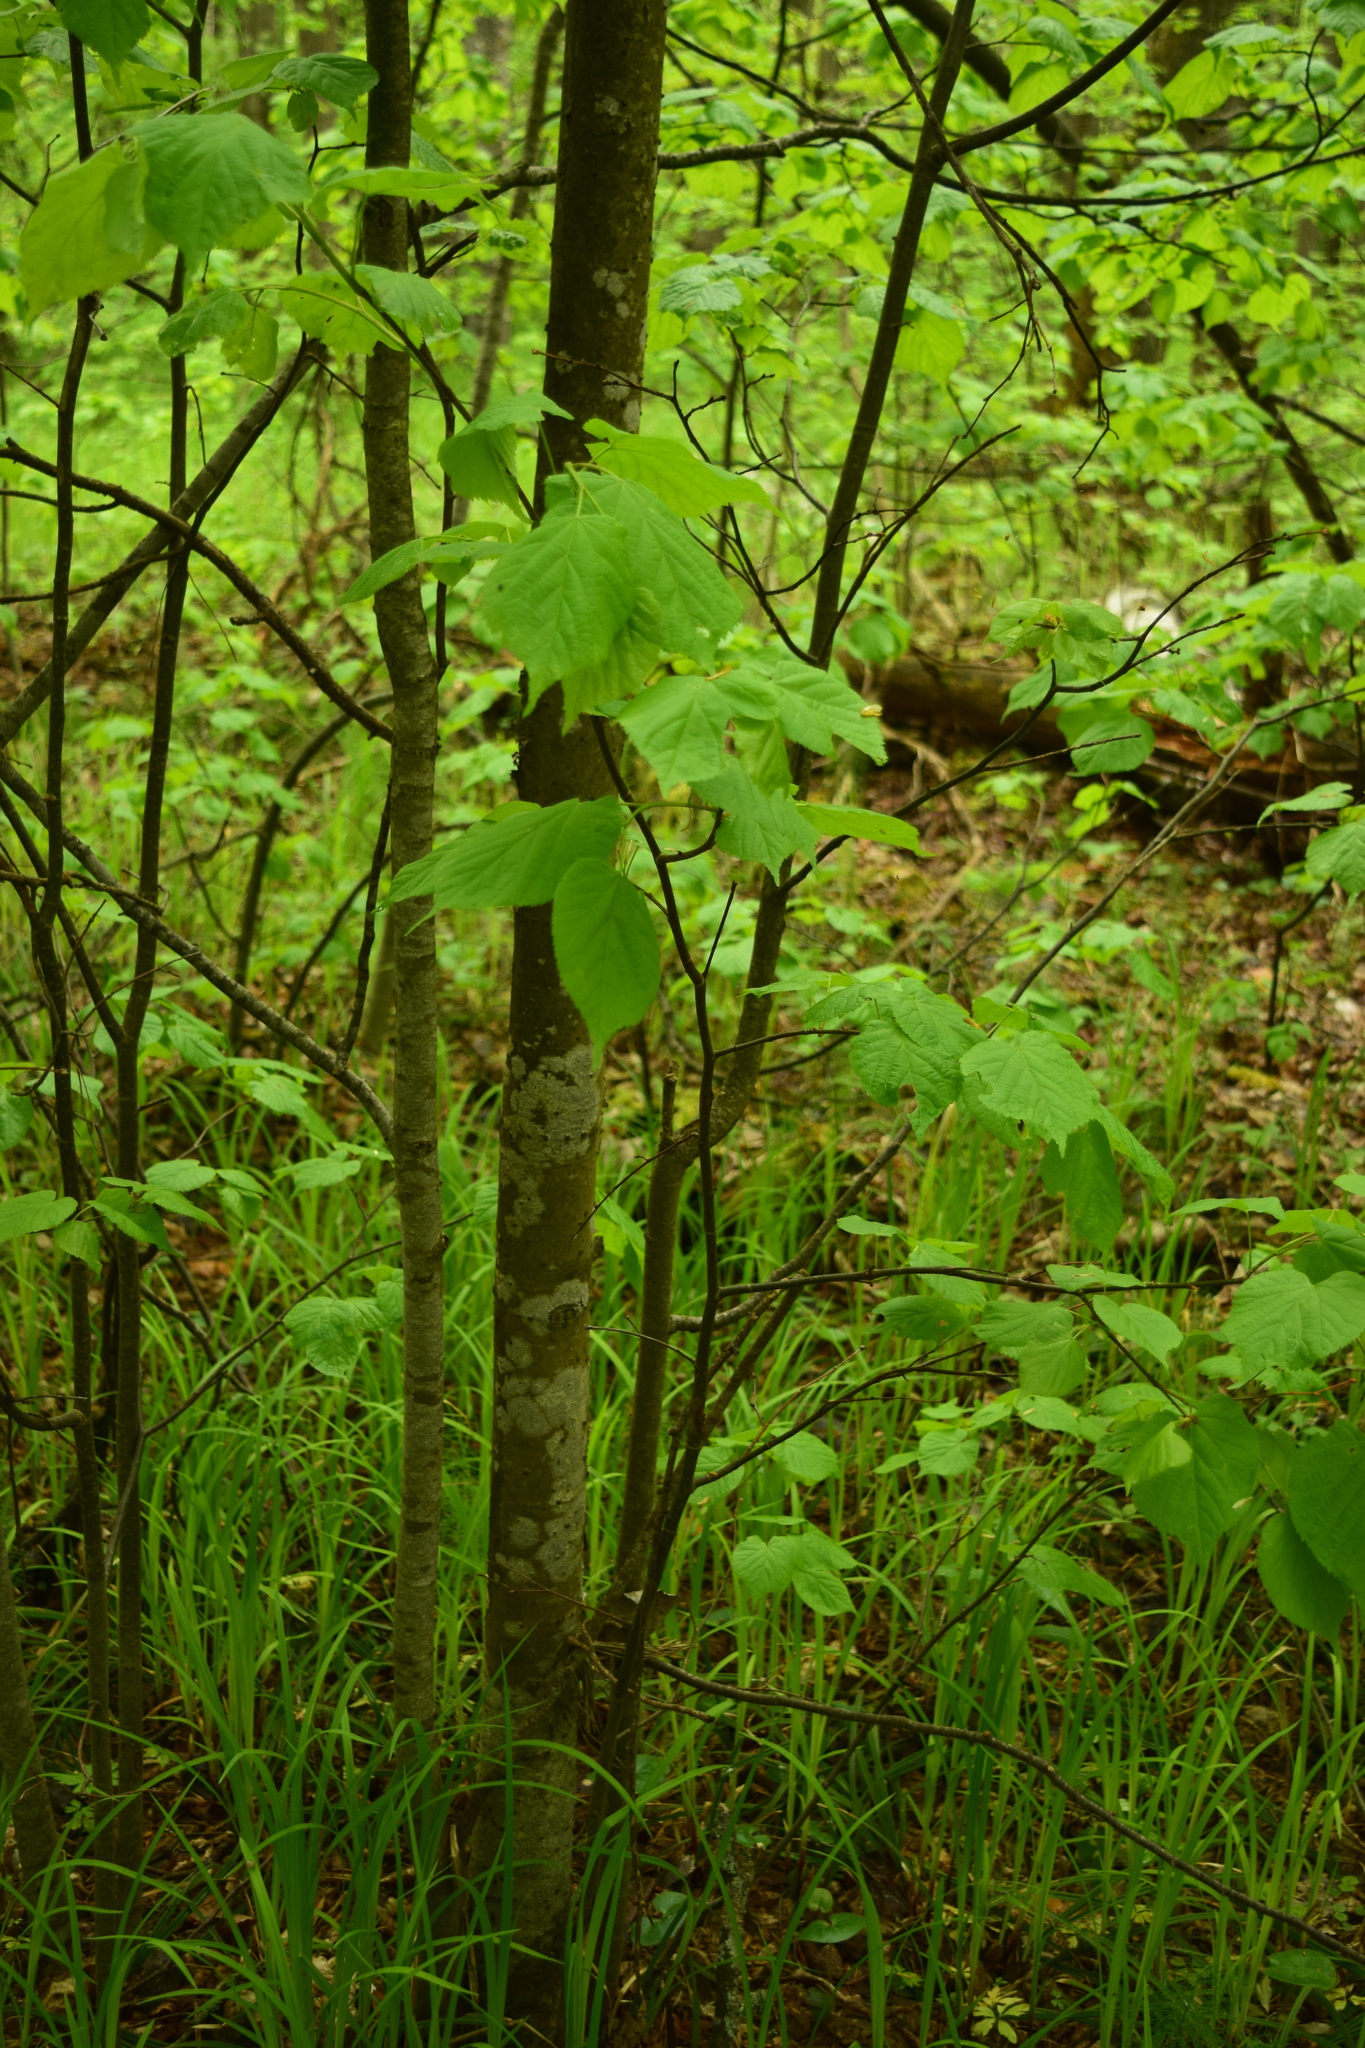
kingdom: Plantae
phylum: Tracheophyta
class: Magnoliopsida
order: Malvales
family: Malvaceae
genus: Tilia
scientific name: Tilia cordata
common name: Small-leaved lime
